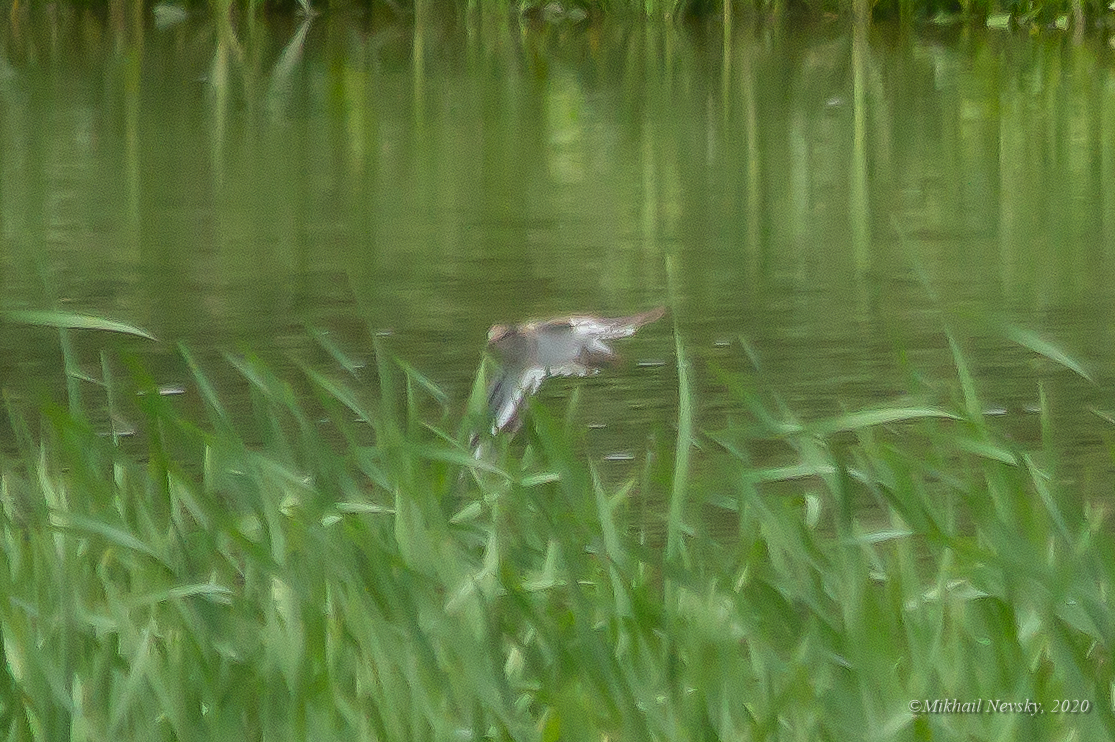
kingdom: Animalia
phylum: Chordata
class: Aves
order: Charadriiformes
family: Scolopacidae
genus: Actitis
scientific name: Actitis hypoleucos
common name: Common sandpiper
